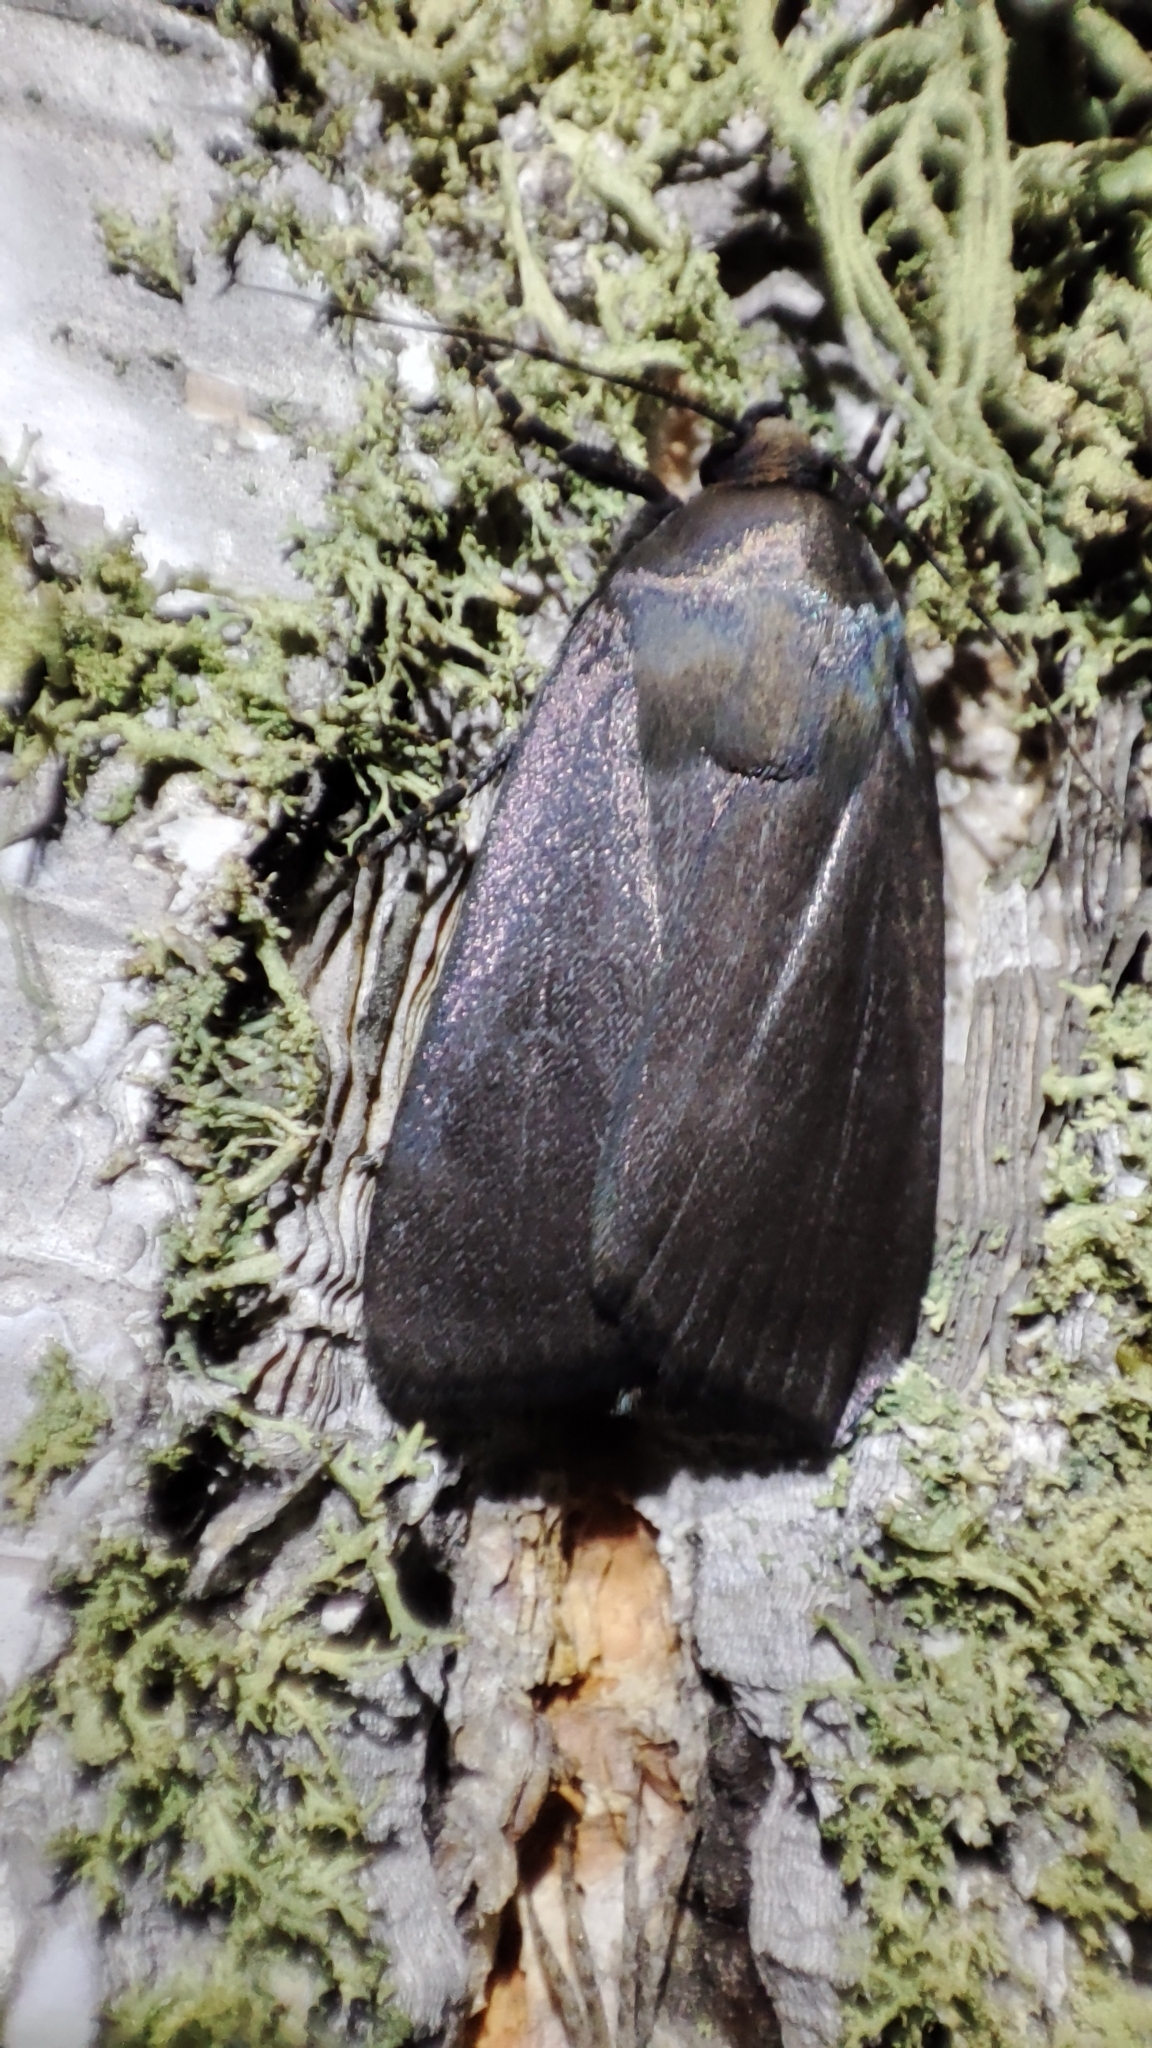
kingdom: Animalia
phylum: Arthropoda
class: Insecta
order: Lepidoptera
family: Noctuidae
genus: Amphipyra
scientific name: Amphipyra livida
